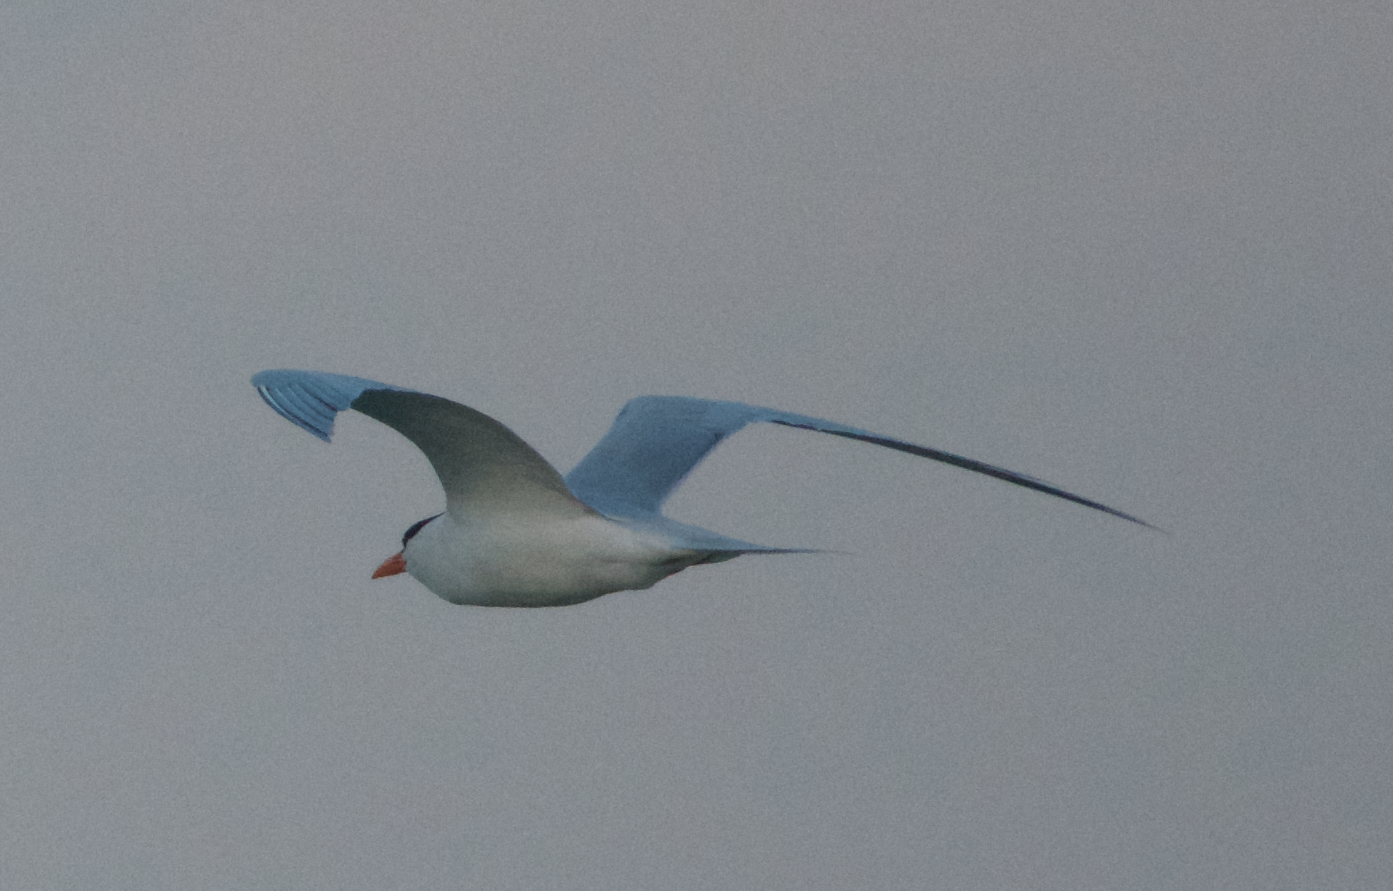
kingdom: Animalia
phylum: Chordata
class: Aves
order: Charadriiformes
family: Laridae
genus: Thalasseus
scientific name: Thalasseus maximus
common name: Royal tern
